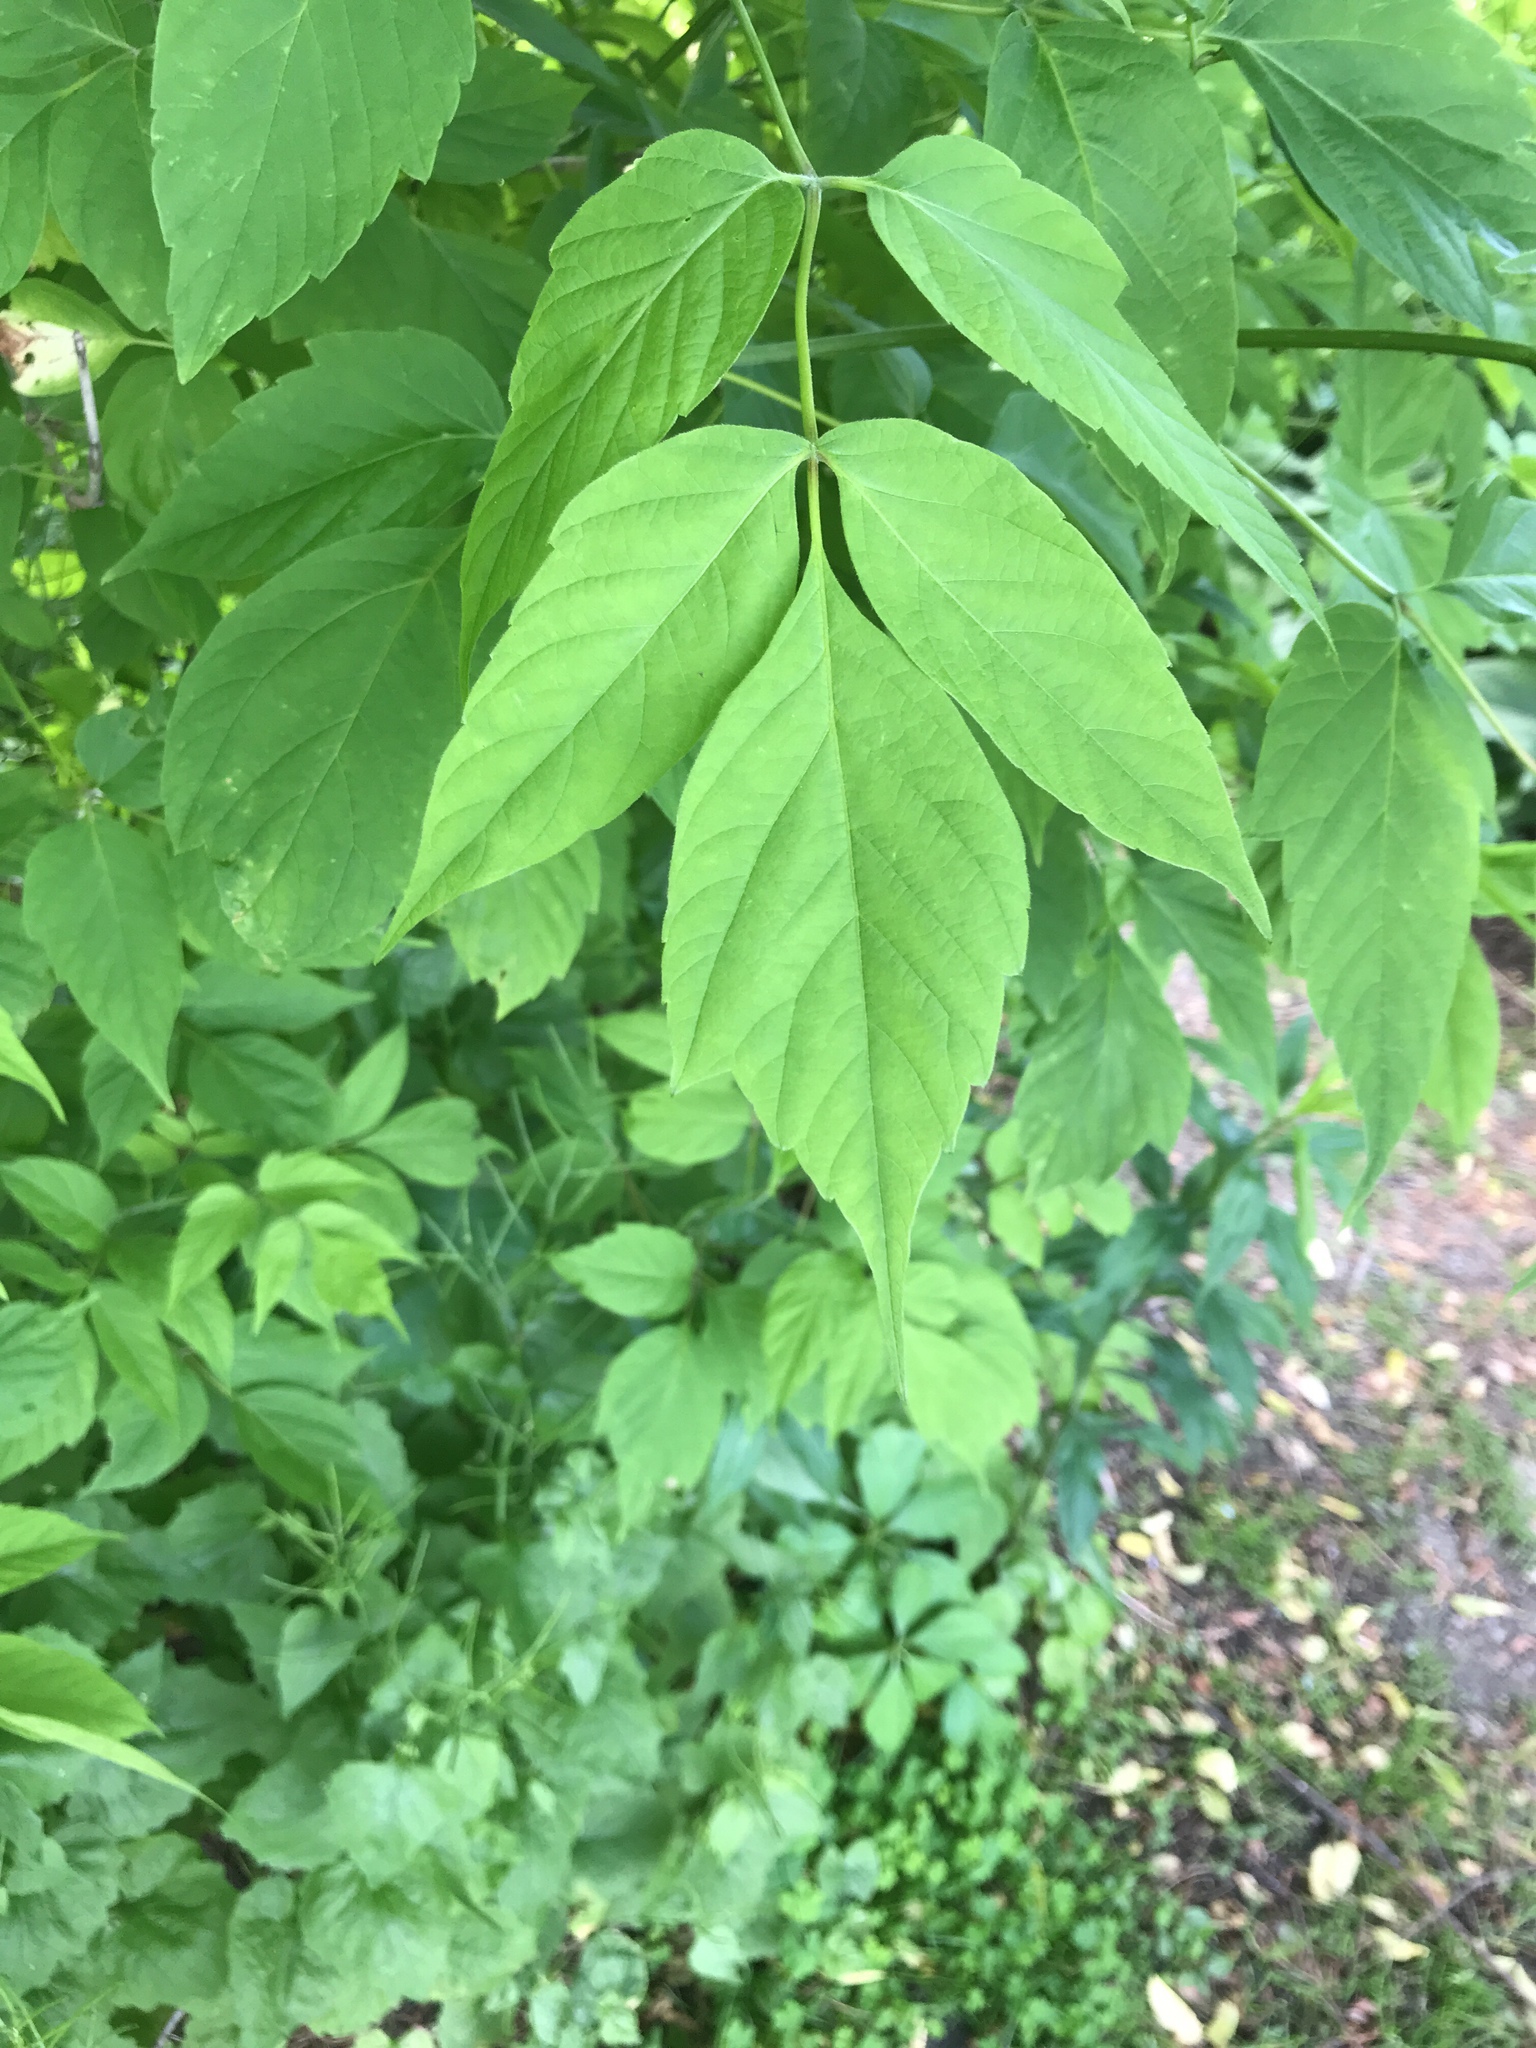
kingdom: Plantae
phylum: Tracheophyta
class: Magnoliopsida
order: Sapindales
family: Sapindaceae
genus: Acer
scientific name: Acer negundo
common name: Ashleaf maple
